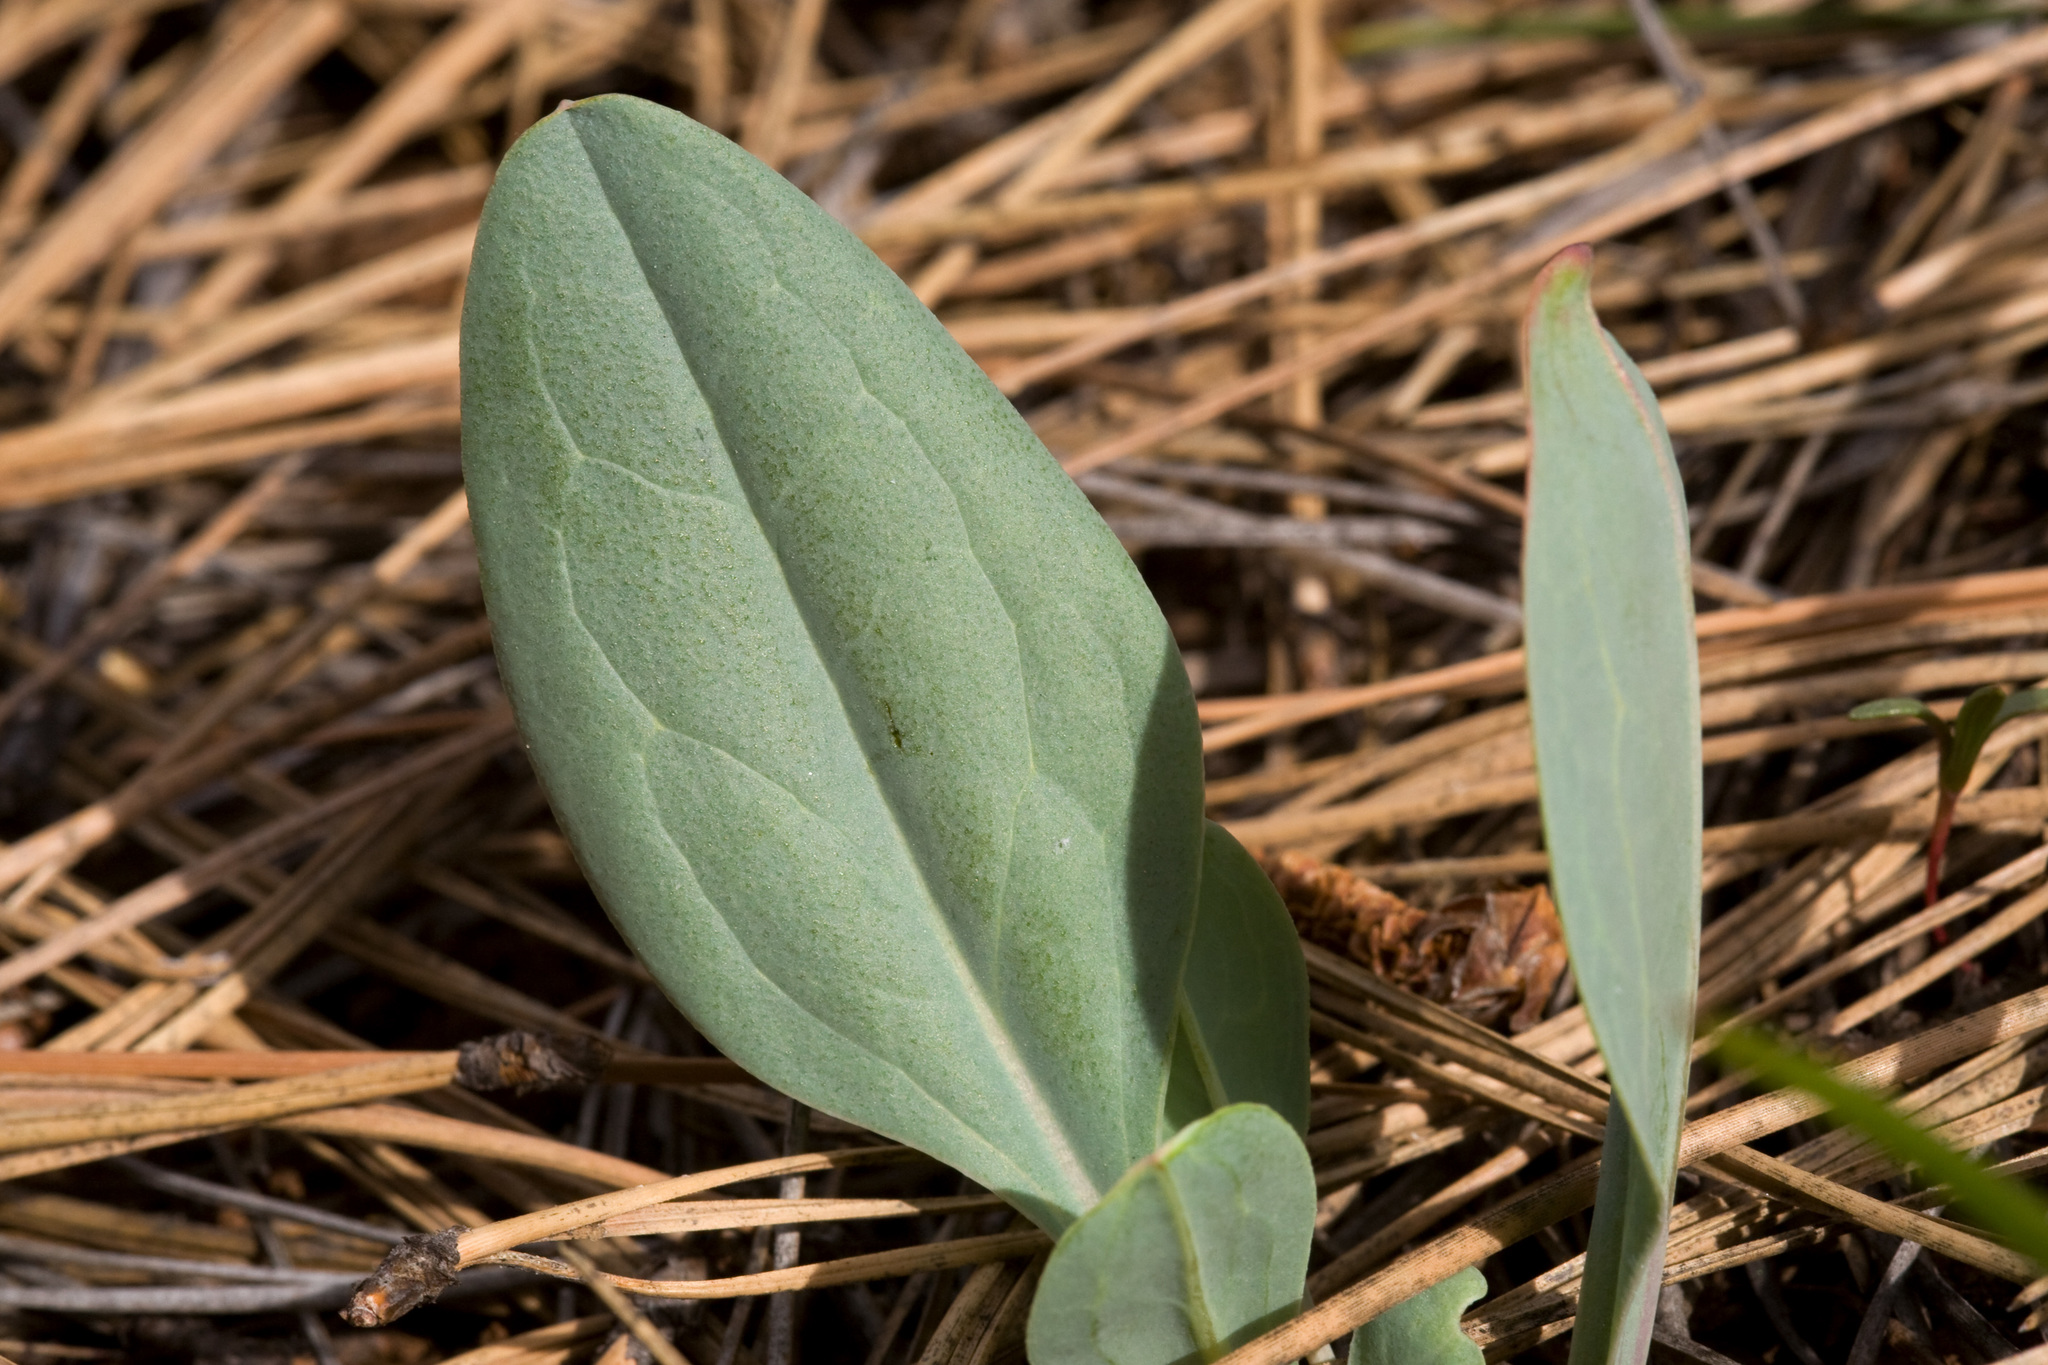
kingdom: Plantae
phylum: Tracheophyta
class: Magnoliopsida
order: Boraginales
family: Boraginaceae
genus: Mertensia
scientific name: Mertensia macdougalii
